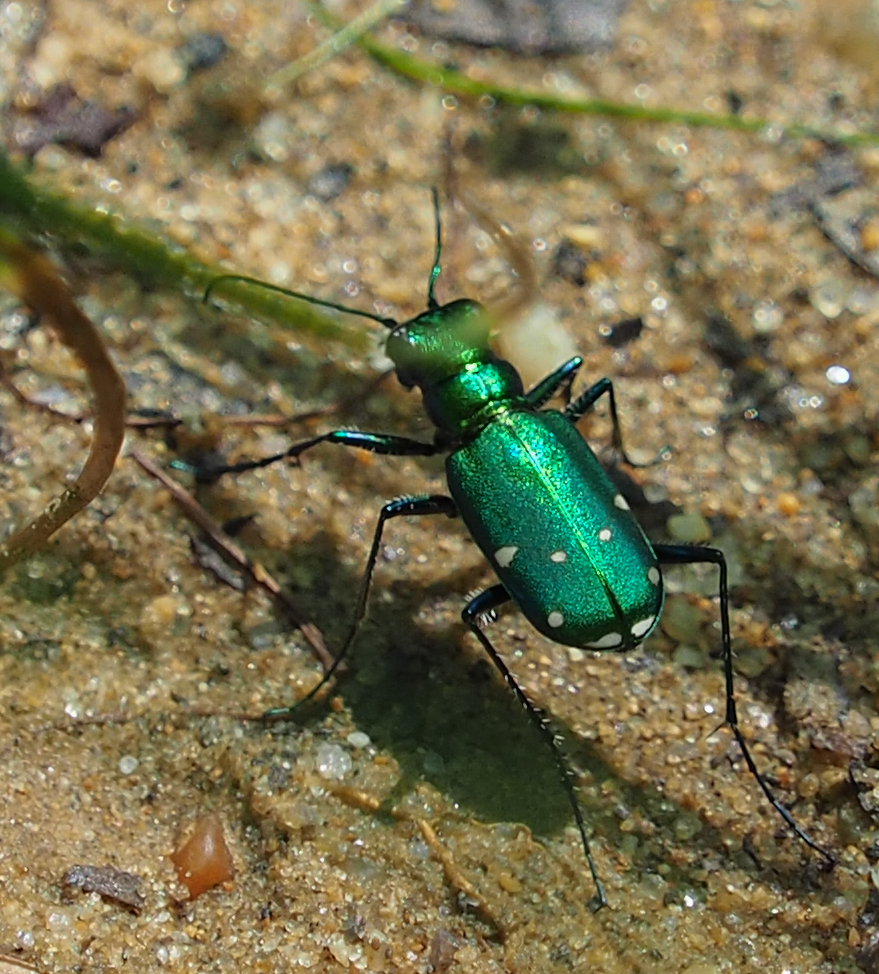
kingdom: Animalia
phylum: Arthropoda
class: Insecta
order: Coleoptera
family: Carabidae
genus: Cicindela
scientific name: Cicindela sexguttata
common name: Six-spotted tiger beetle
